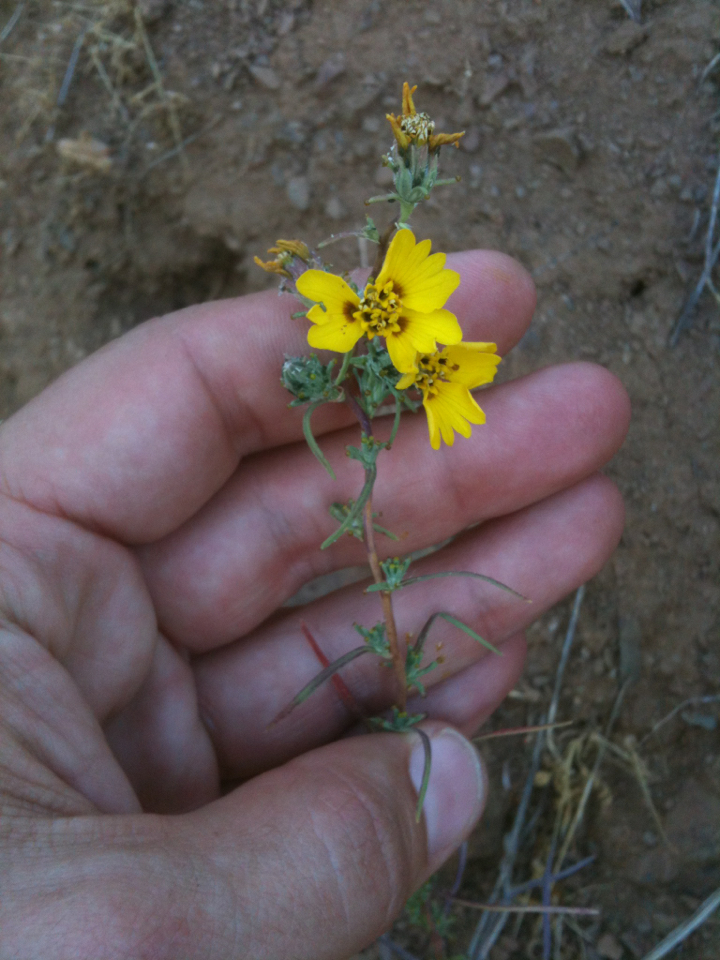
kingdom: Plantae
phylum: Tracheophyta
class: Magnoliopsida
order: Asterales
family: Asteraceae
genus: Calycadenia
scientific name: Calycadenia truncata
